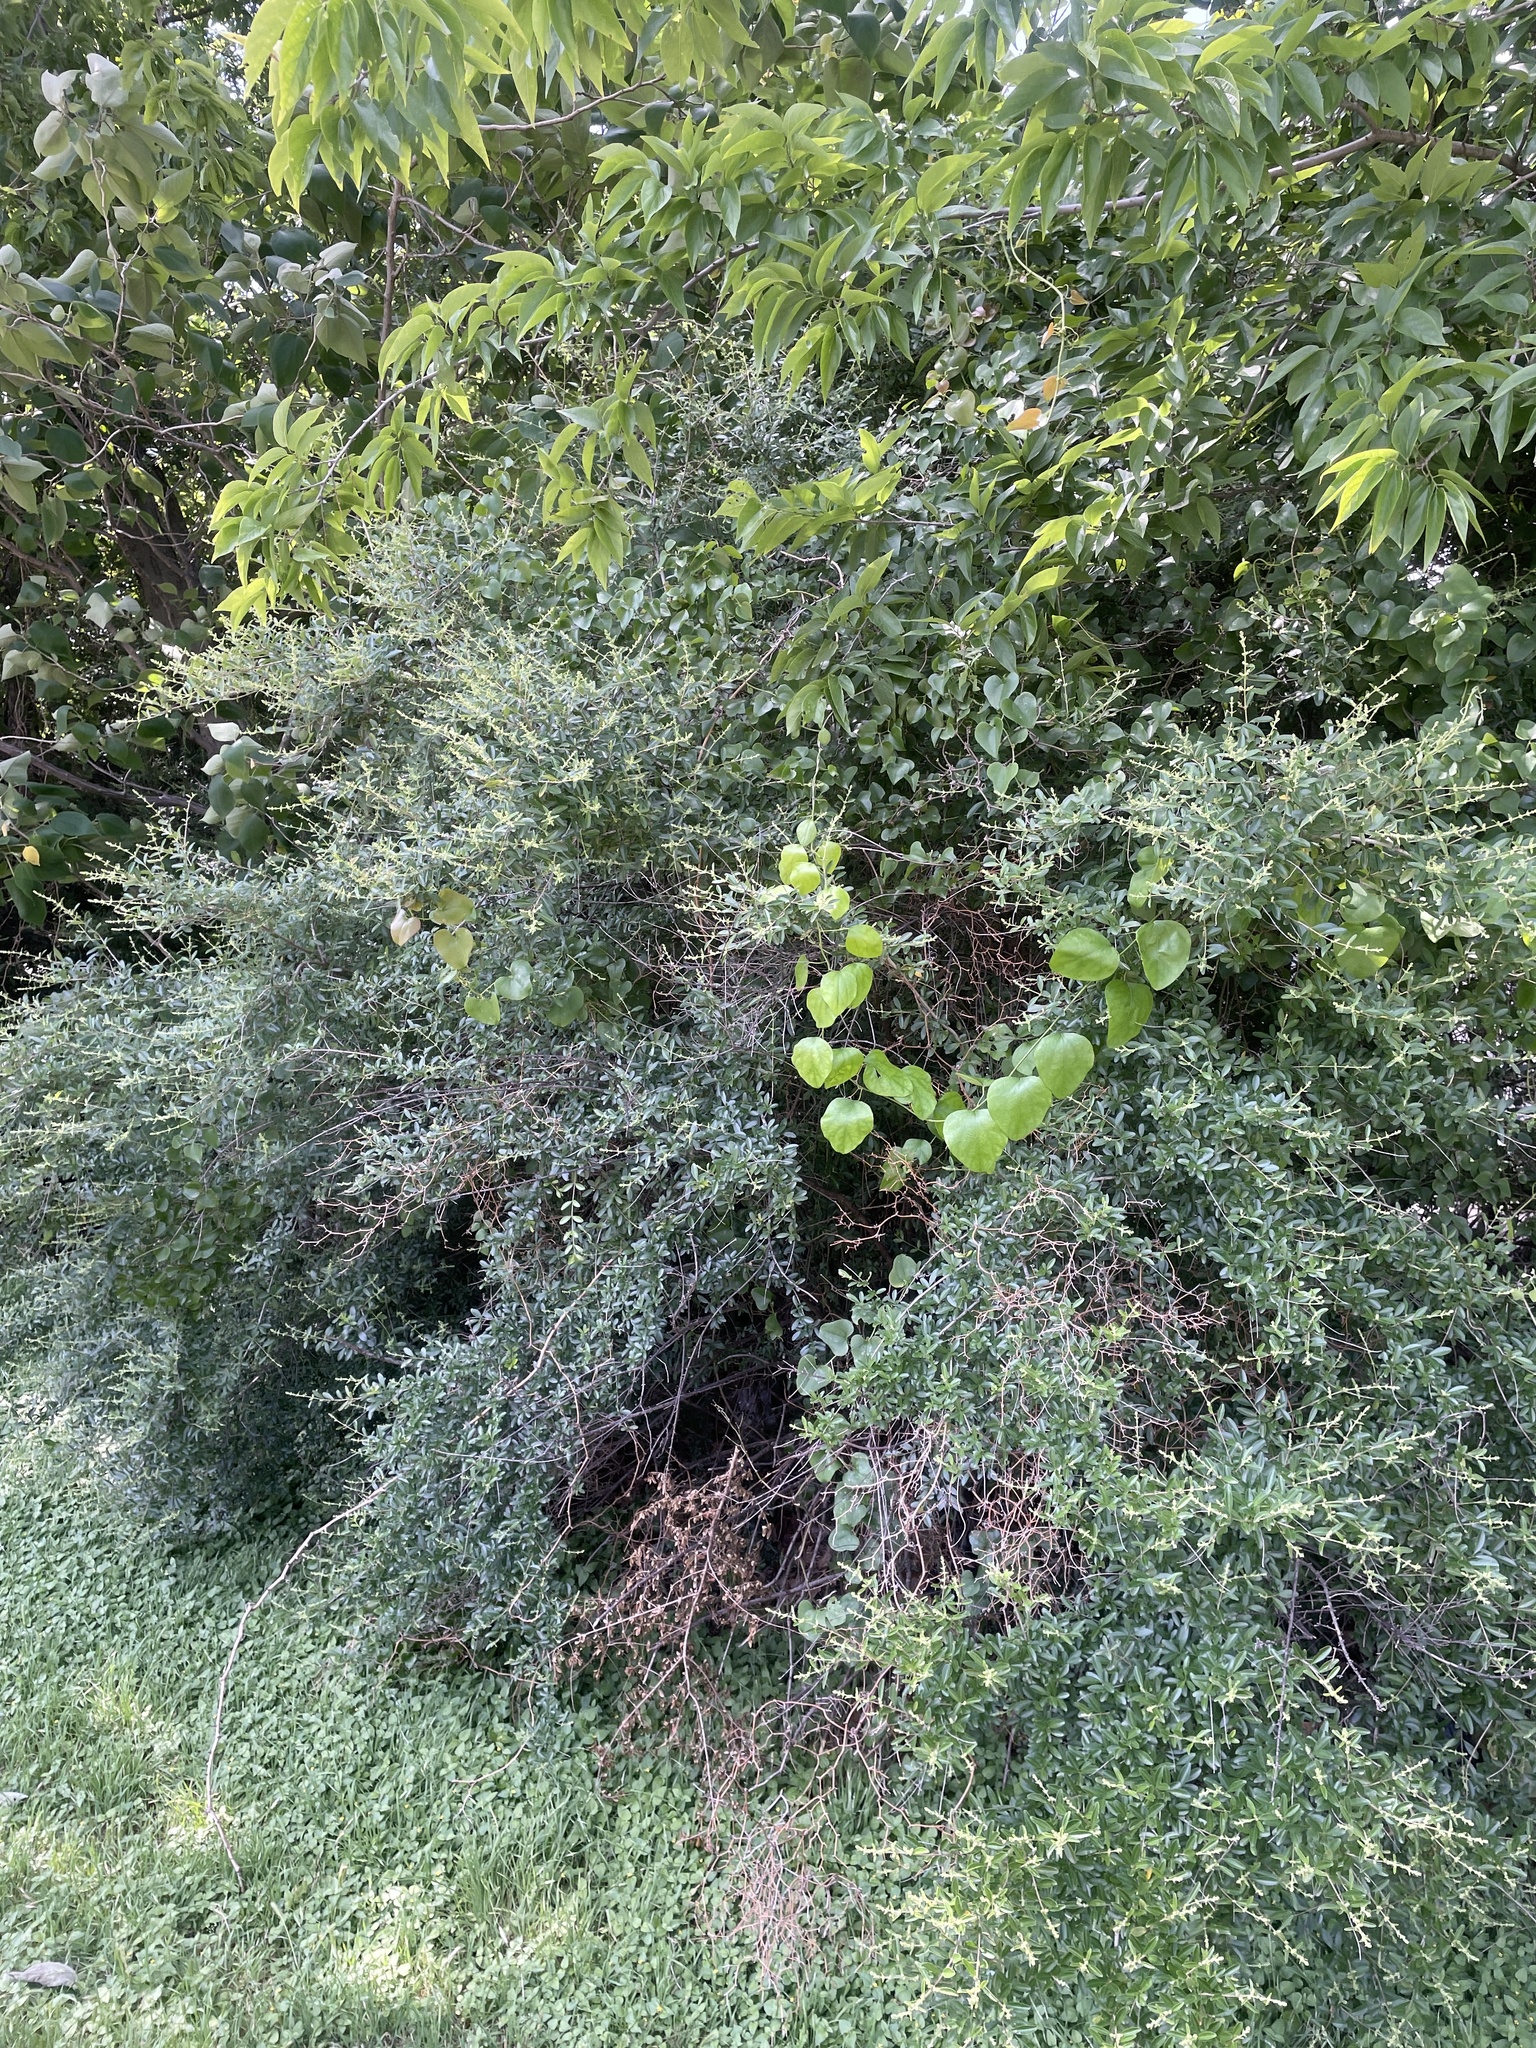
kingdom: Plantae
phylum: Tracheophyta
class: Magnoliopsida
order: Lamiales
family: Oleaceae
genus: Ligustrum
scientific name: Ligustrum quihoui
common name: Waxyleaf privet
